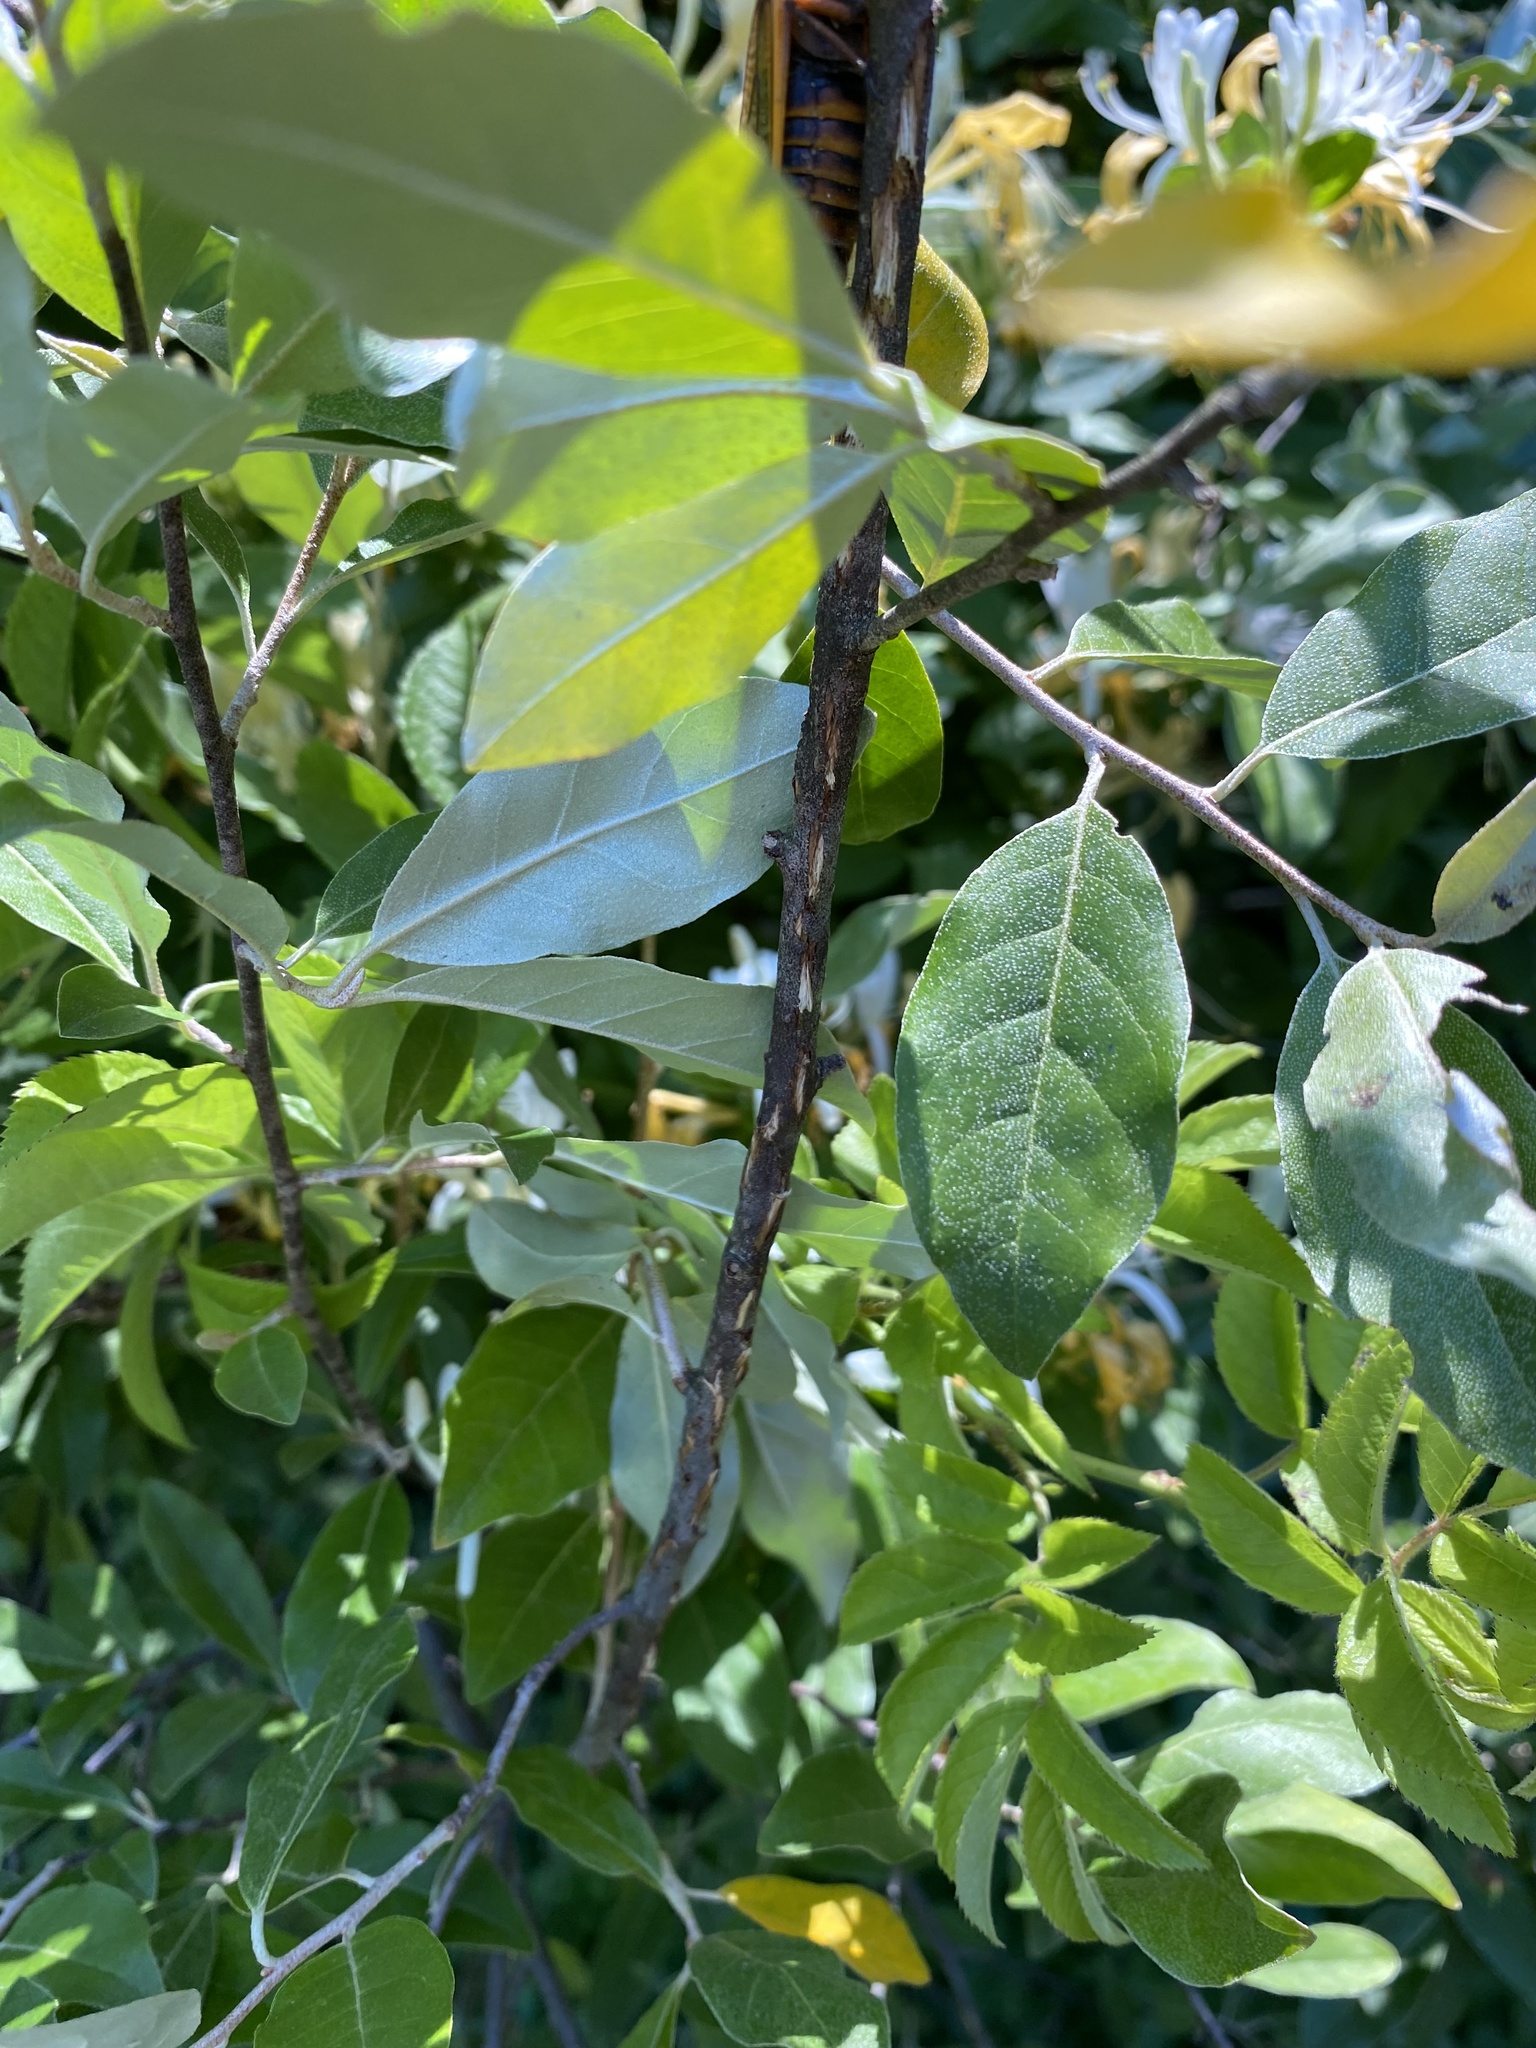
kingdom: Animalia
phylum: Arthropoda
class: Insecta
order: Hemiptera
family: Cicadidae
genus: Magicicada
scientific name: Magicicada septendecim
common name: Periodical cicada
